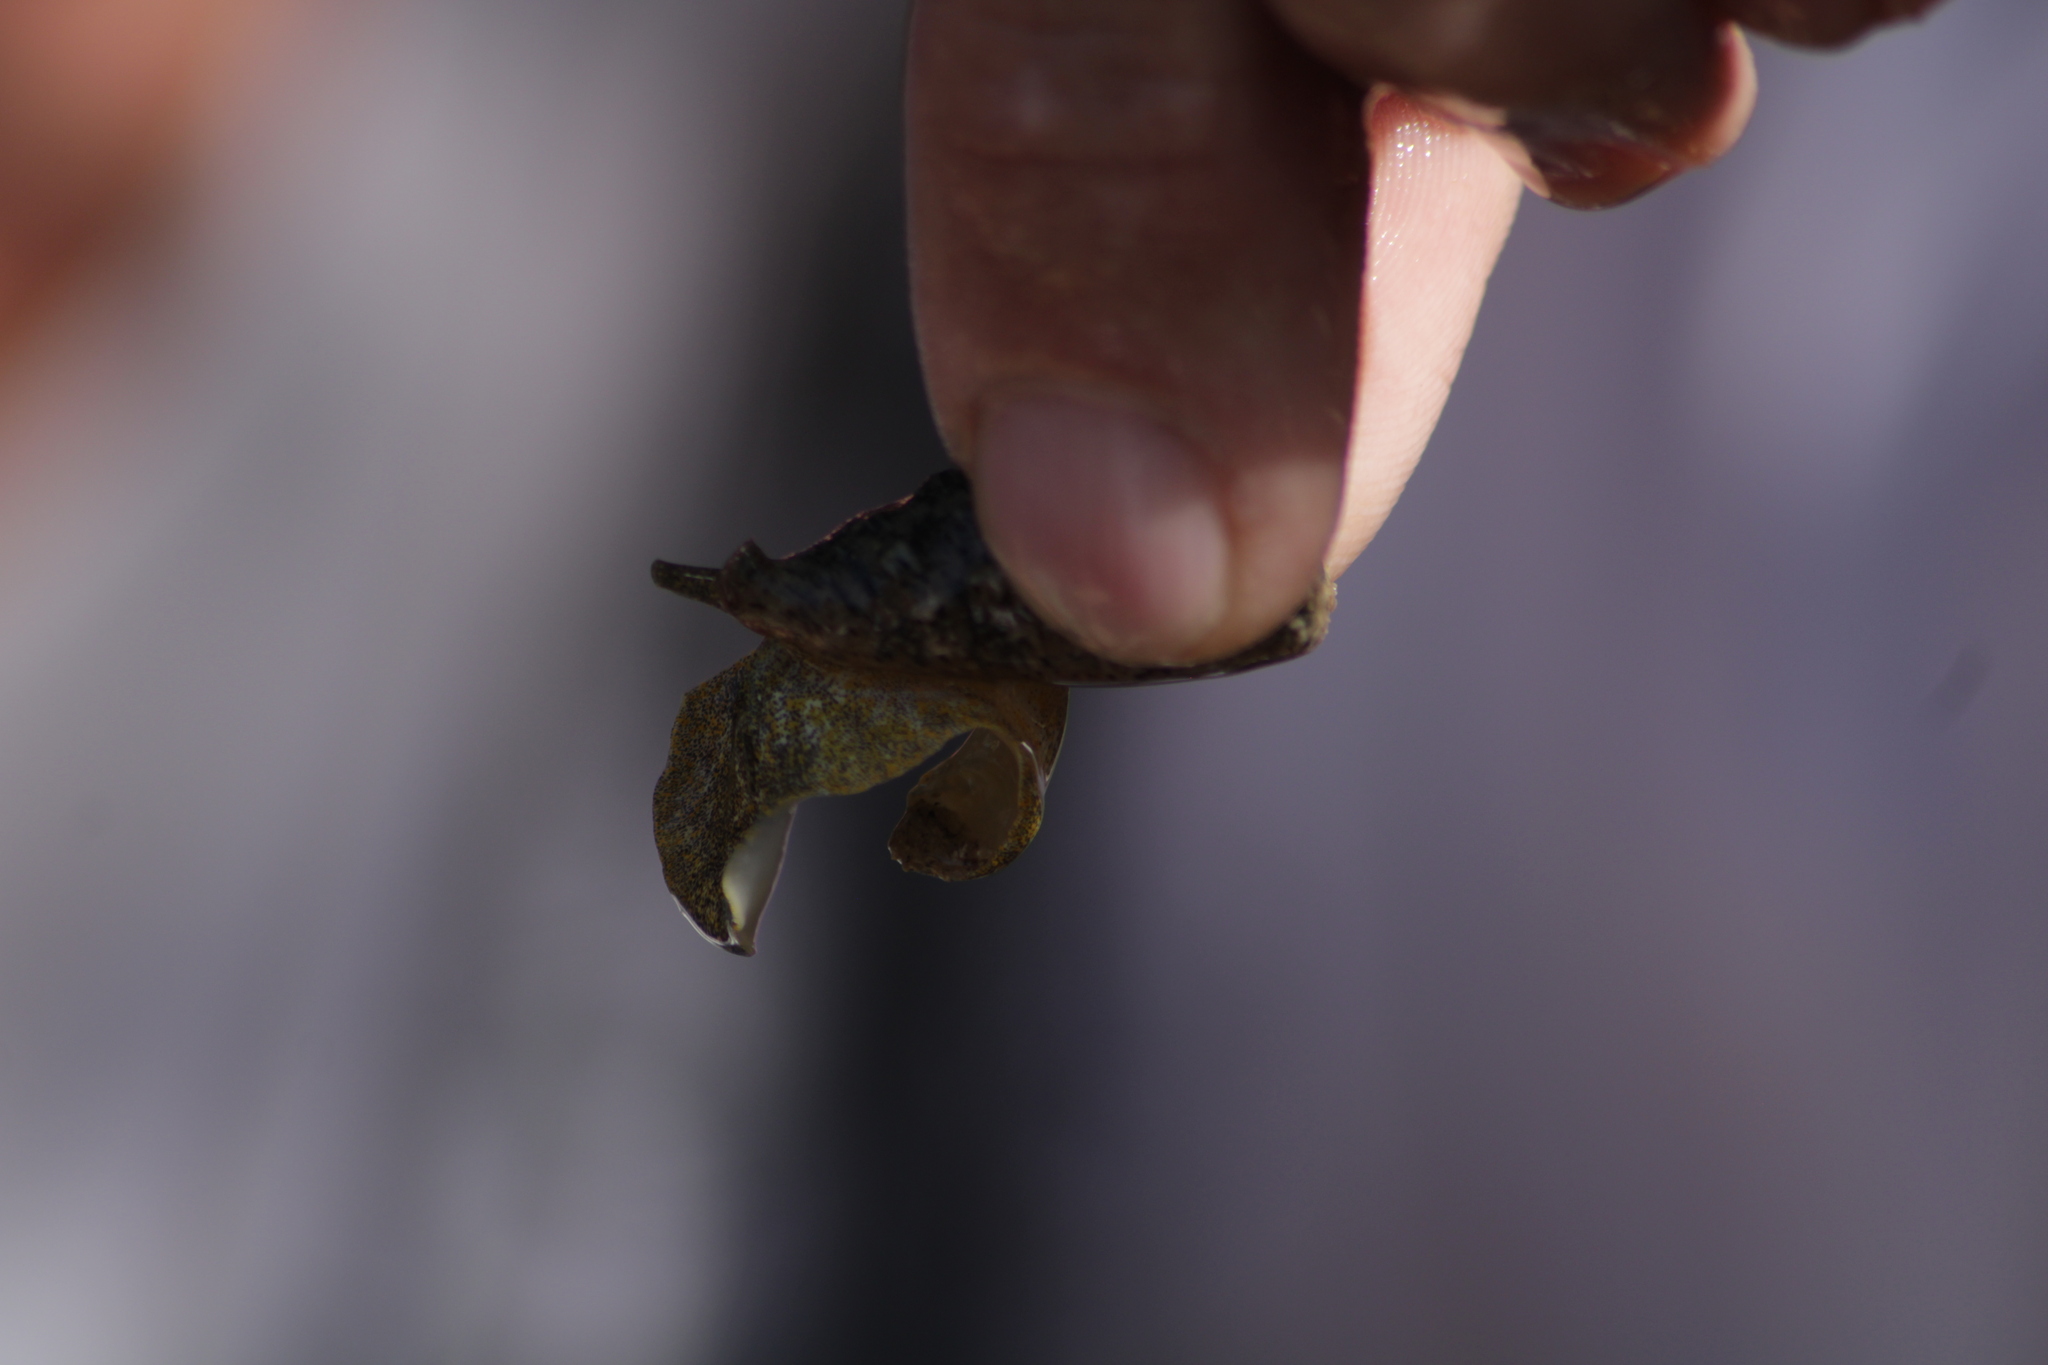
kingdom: Animalia
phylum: Mollusca
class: Gastropoda
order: Neogastropoda
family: Harpidae
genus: Morum
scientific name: Morum tuberculosum
